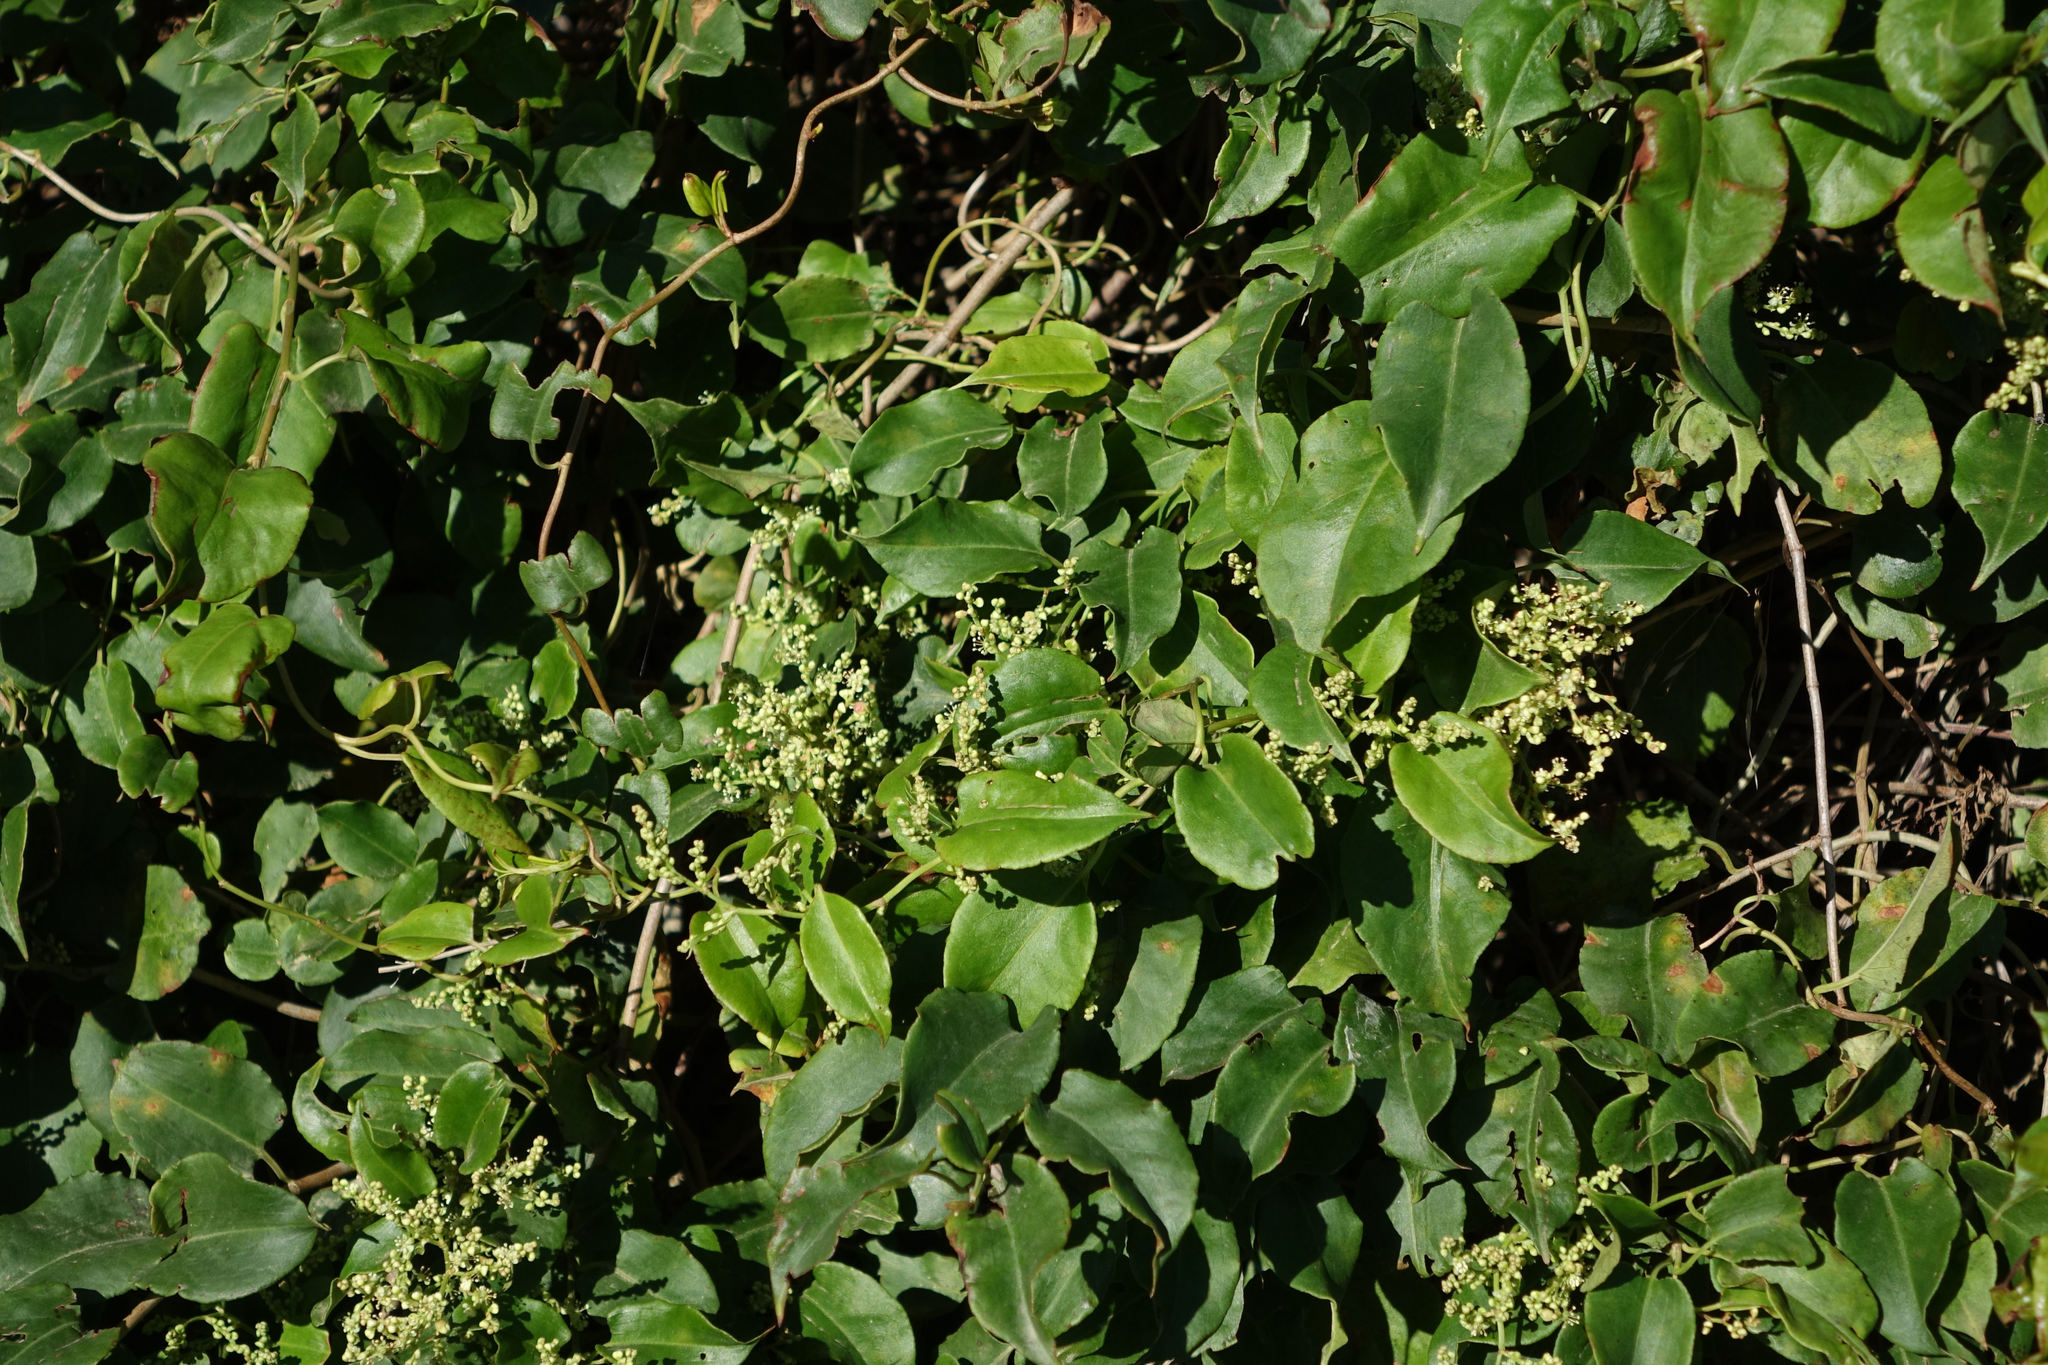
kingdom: Plantae
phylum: Tracheophyta
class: Magnoliopsida
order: Caryophyllales
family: Polygonaceae
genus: Muehlenbeckia
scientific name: Muehlenbeckia australis
